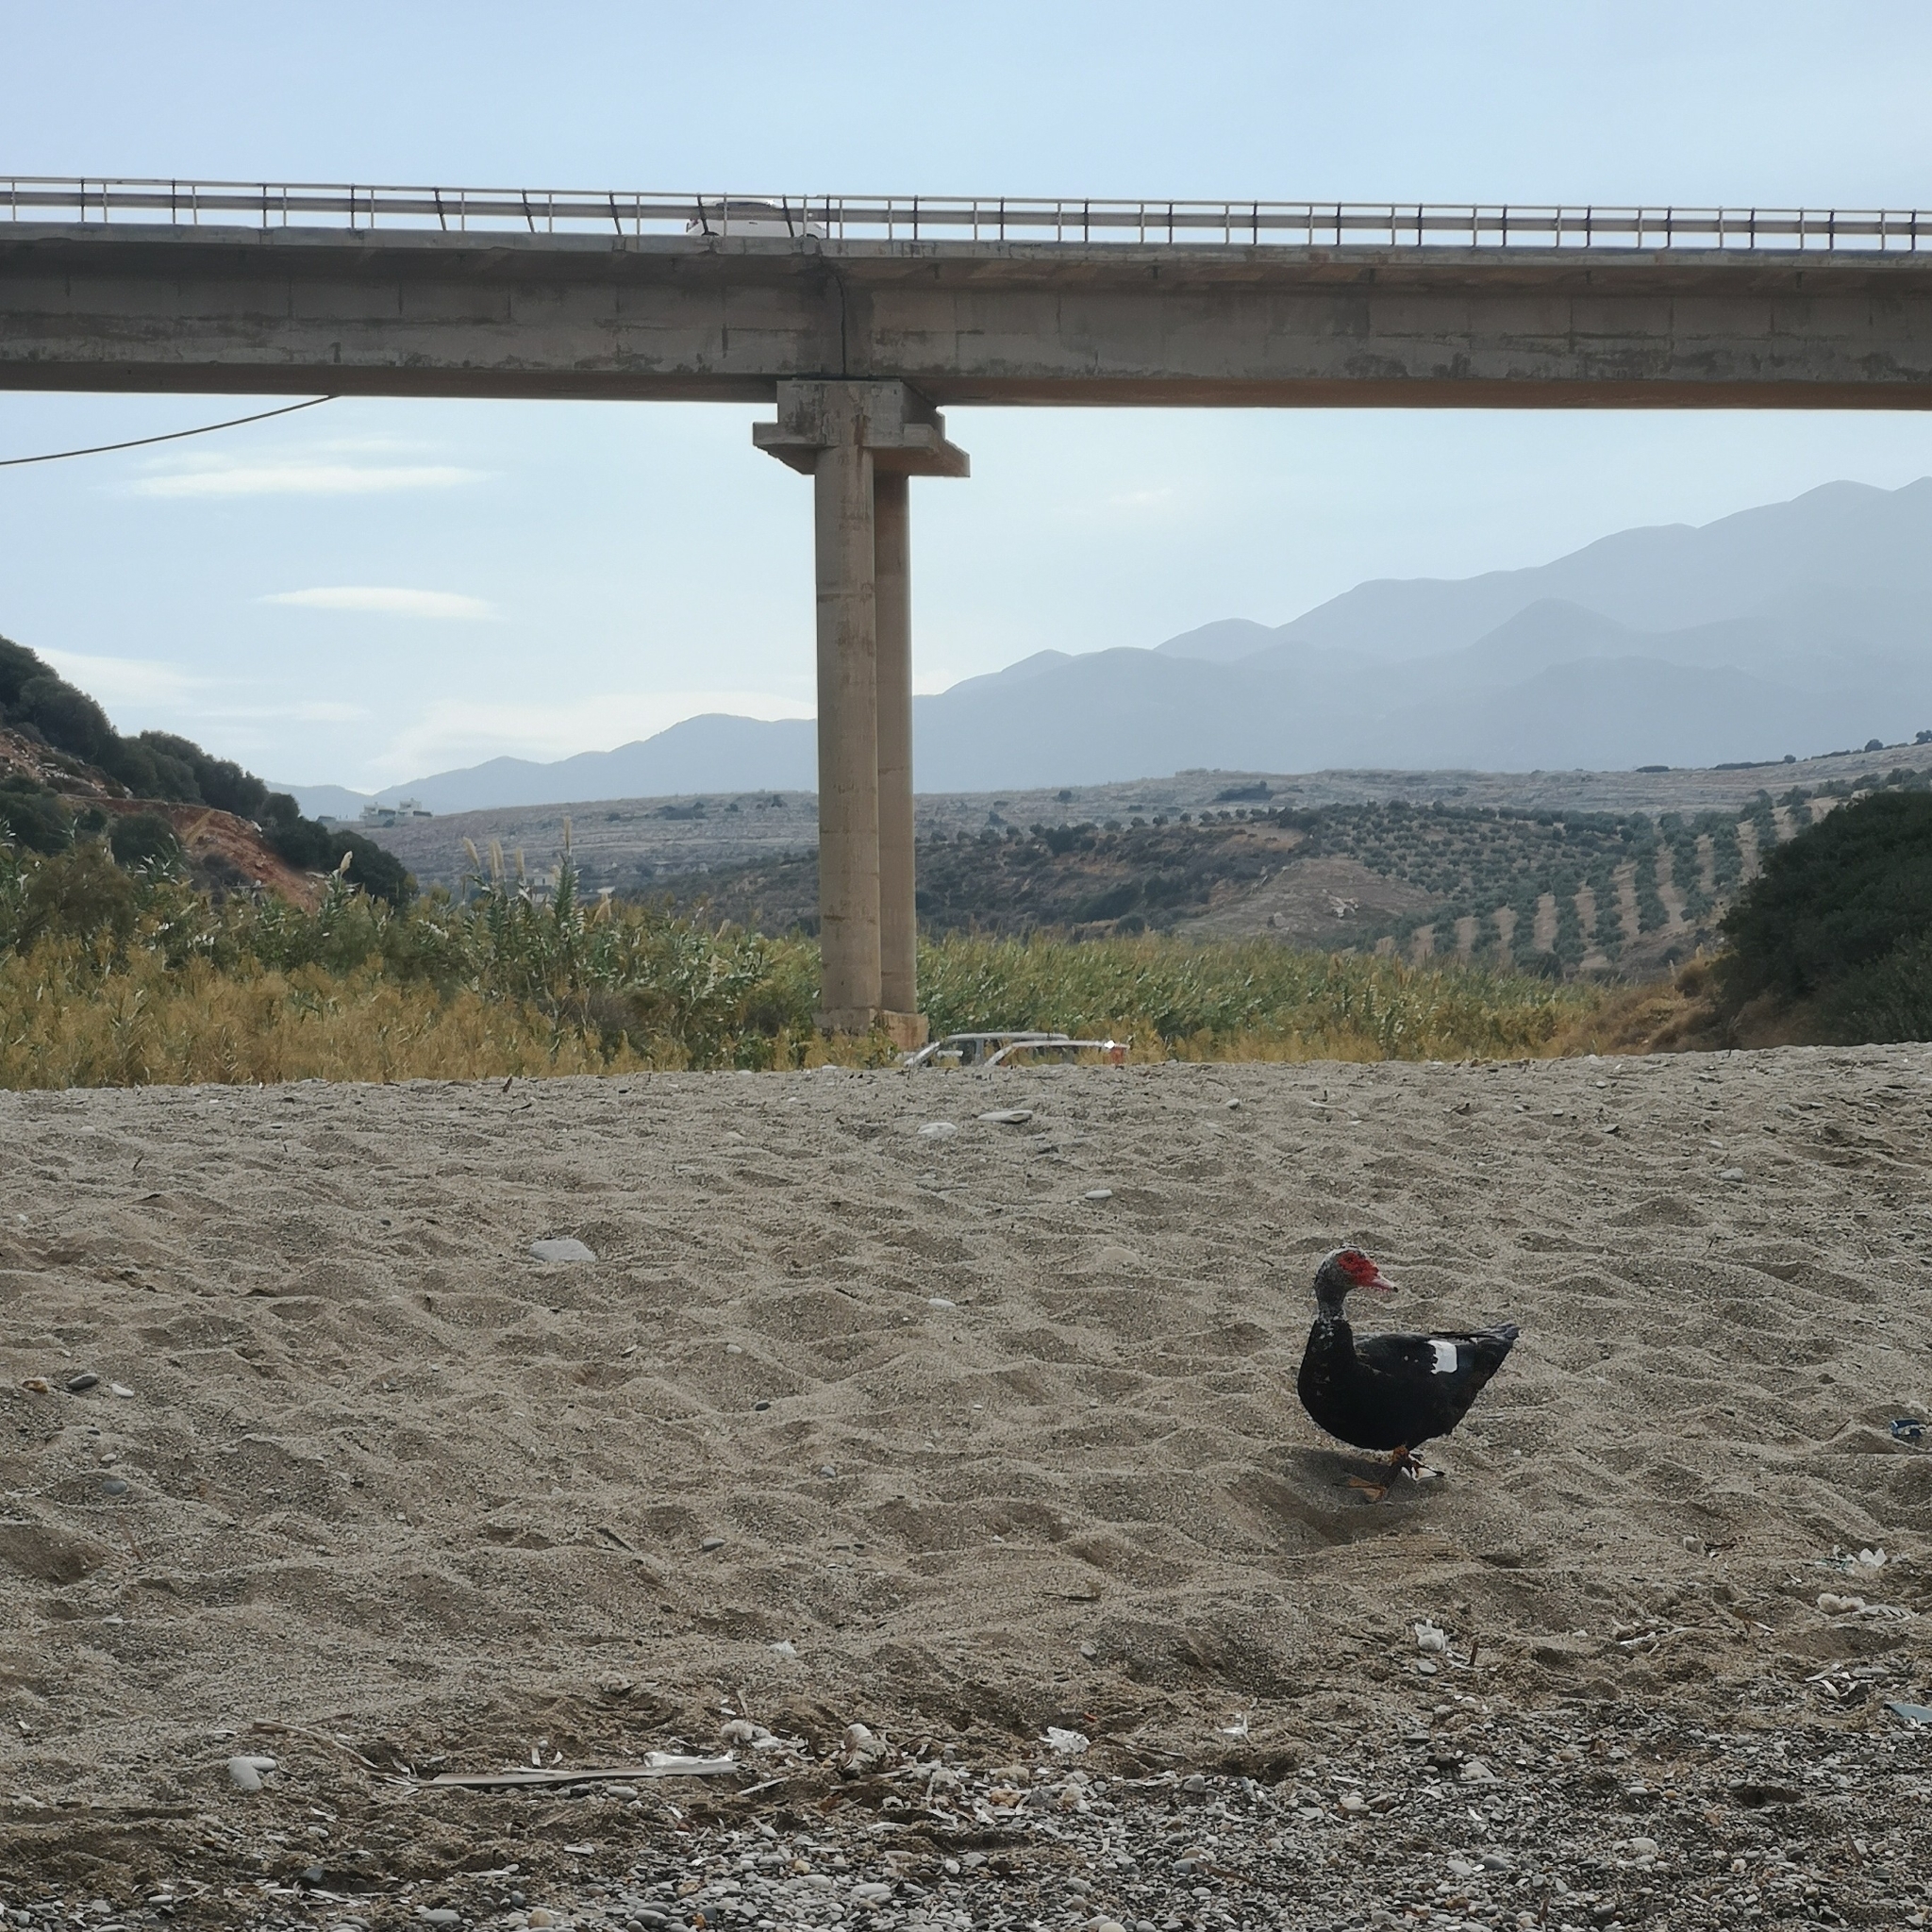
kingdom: Animalia
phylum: Chordata
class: Aves
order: Anseriformes
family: Anatidae
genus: Cairina
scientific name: Cairina moschata
